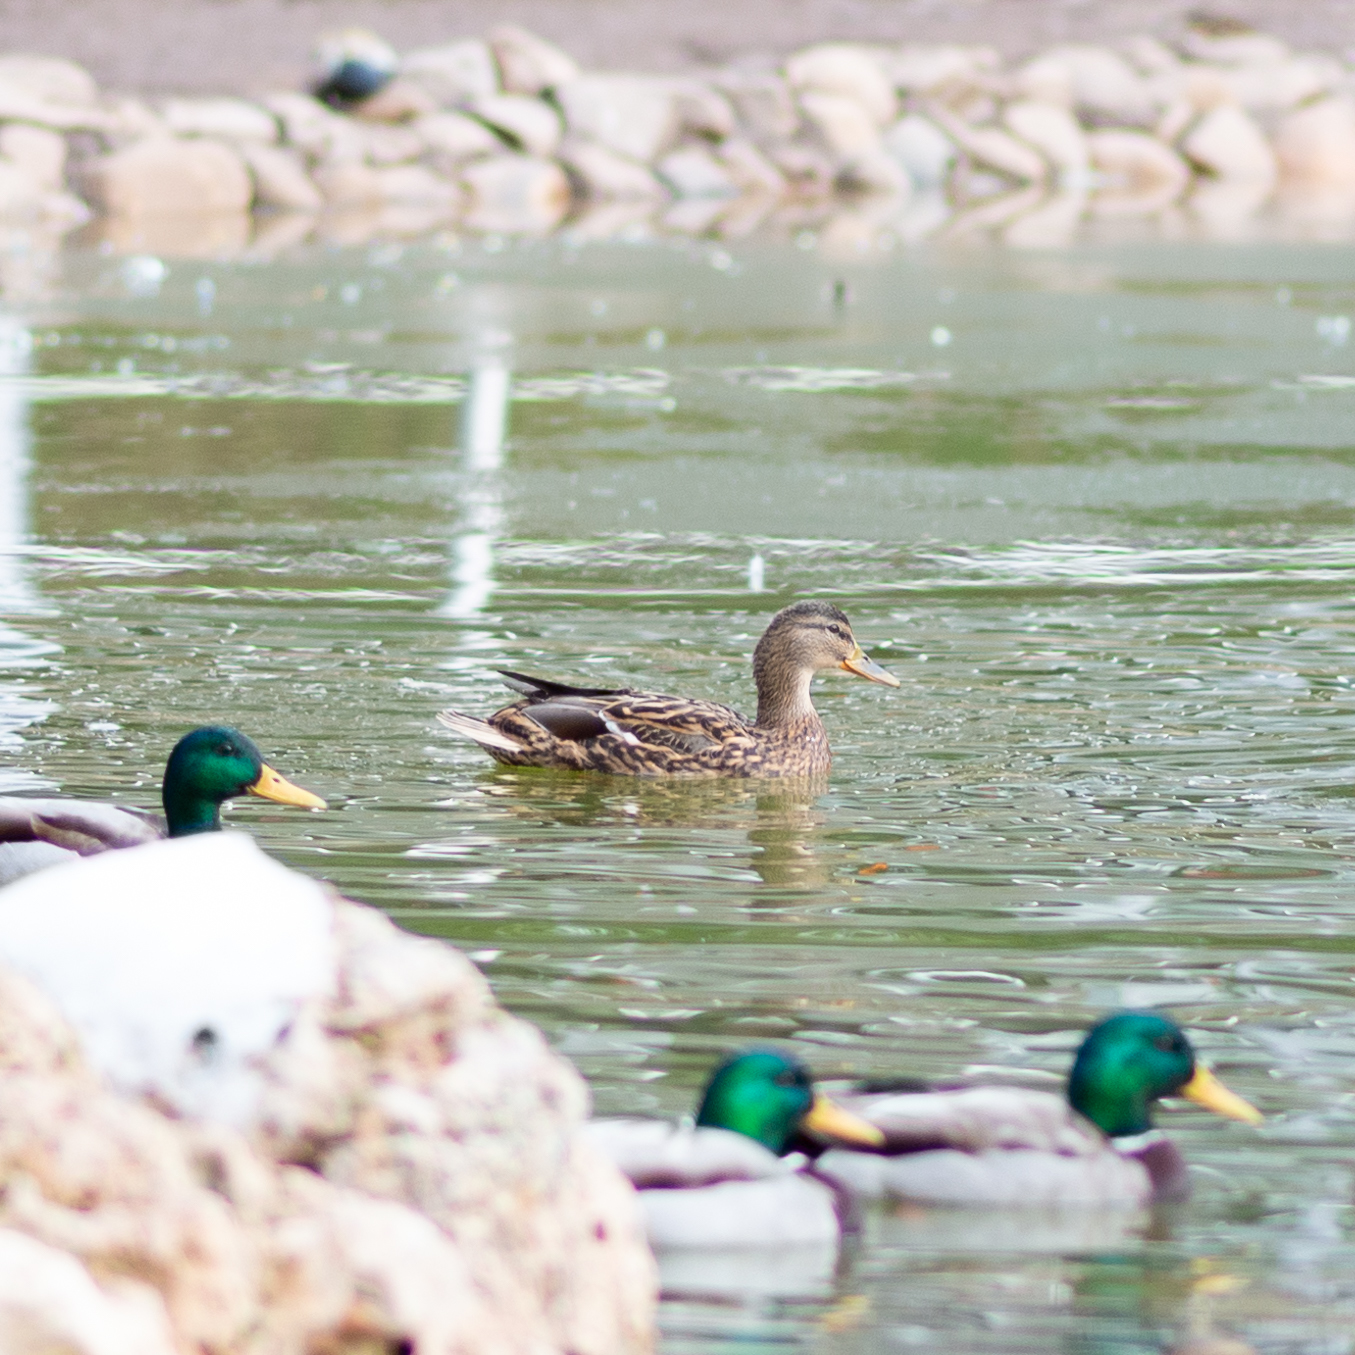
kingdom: Animalia
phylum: Chordata
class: Aves
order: Anseriformes
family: Anatidae
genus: Anas
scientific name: Anas platyrhynchos
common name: Mallard
